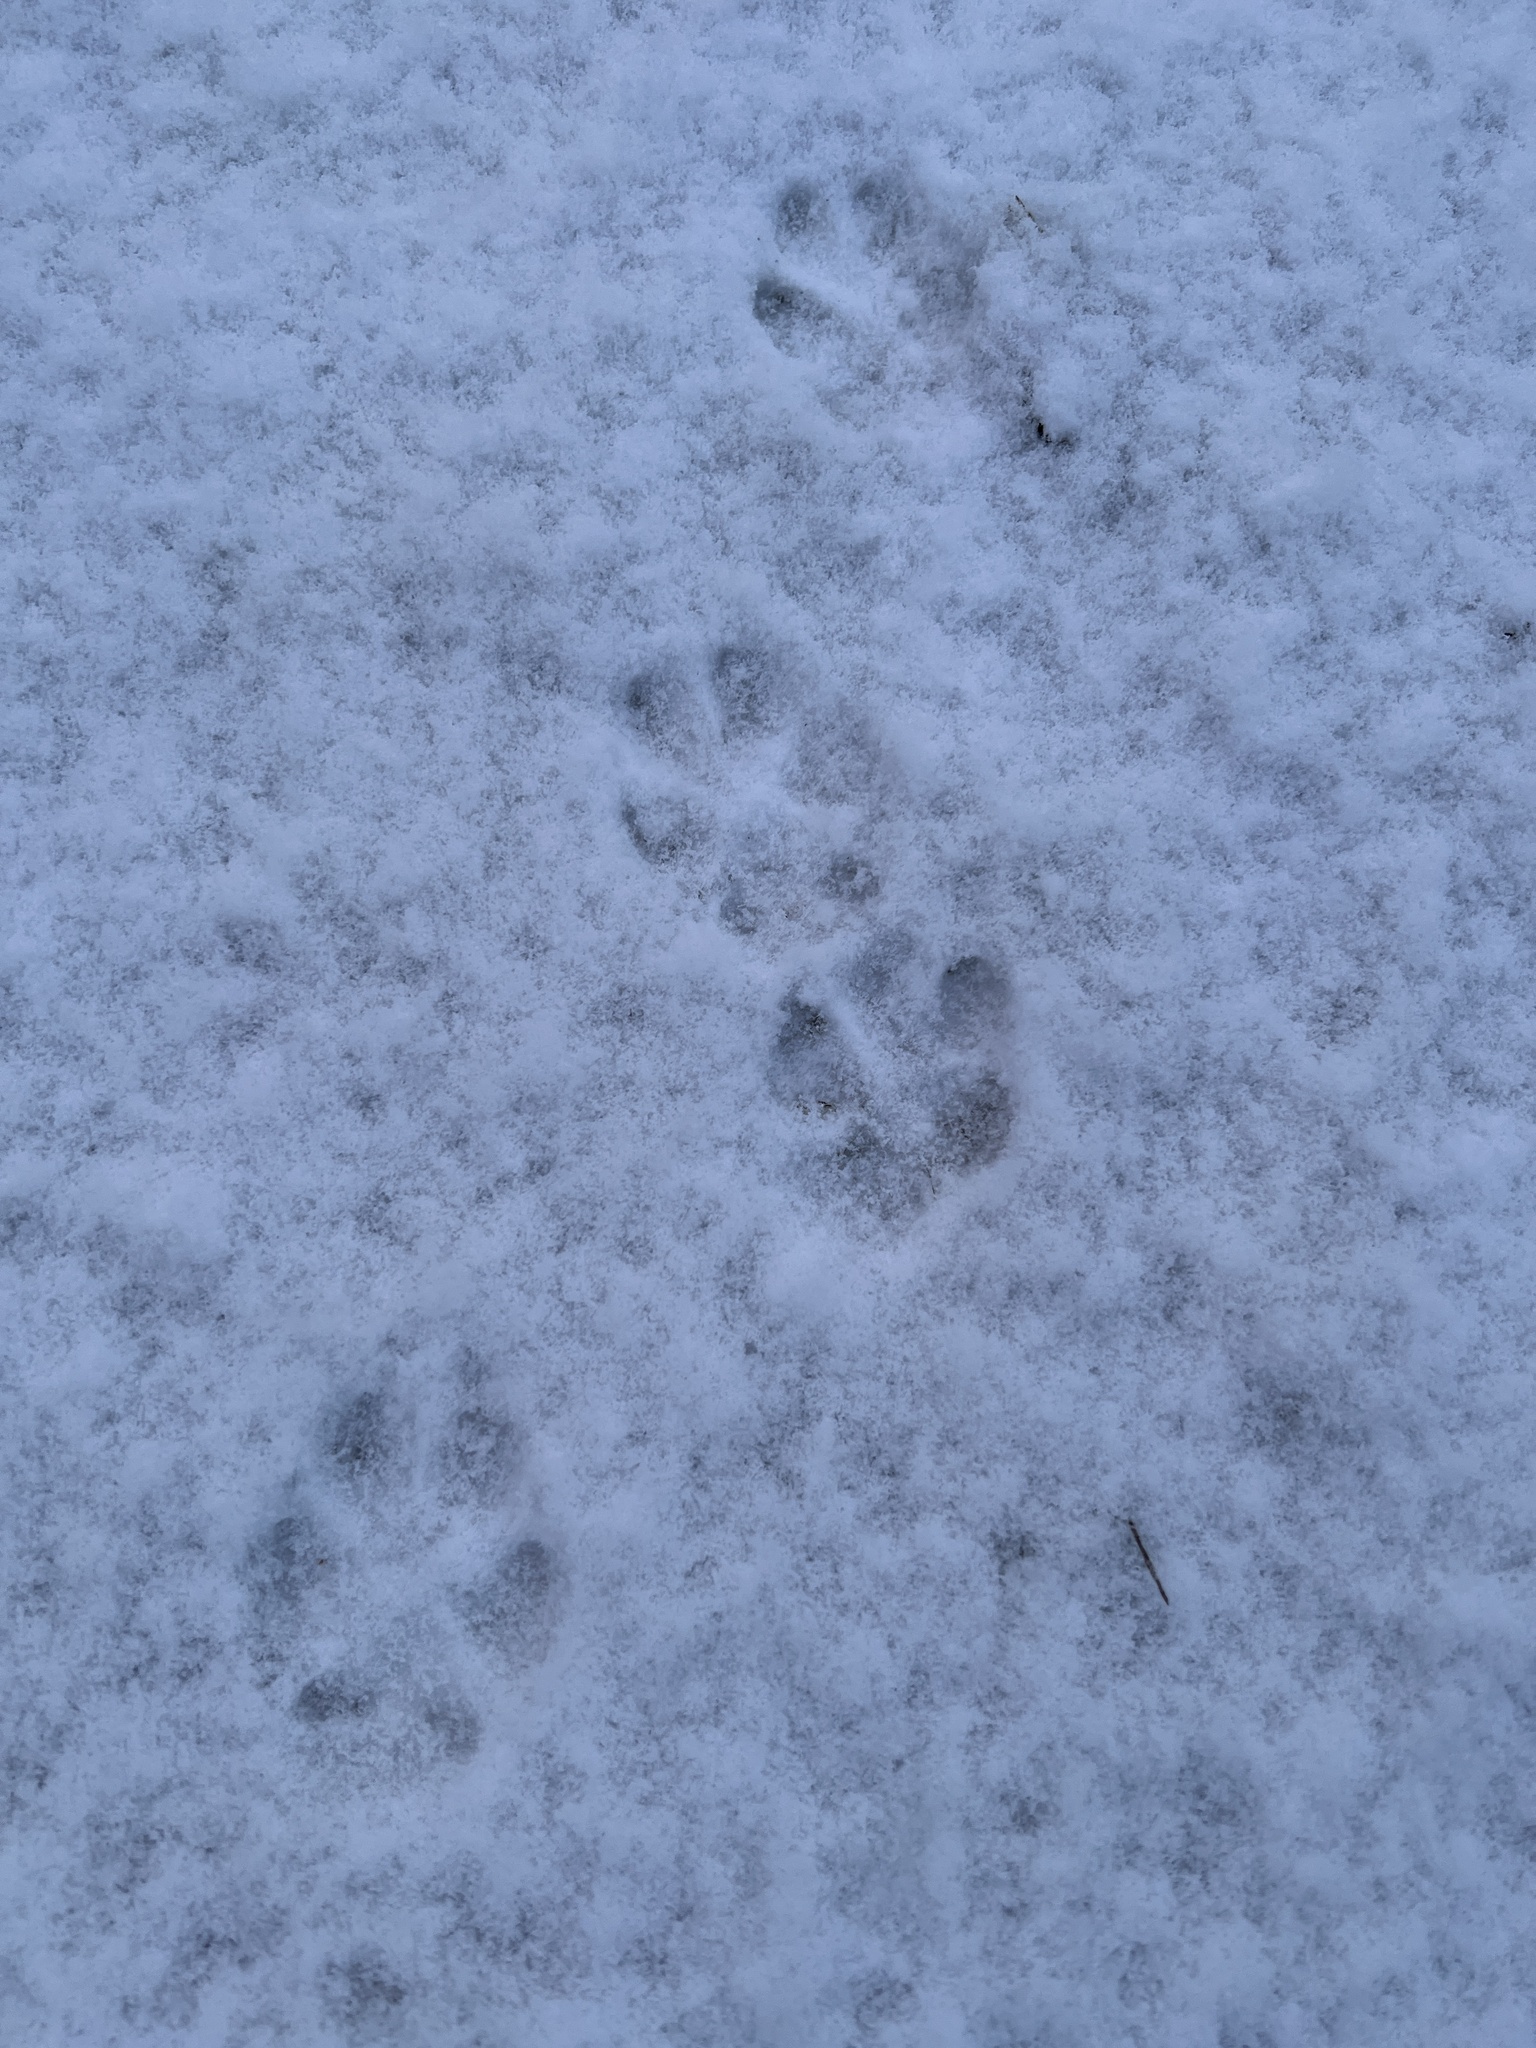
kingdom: Animalia
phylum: Chordata
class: Mammalia
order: Carnivora
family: Canidae
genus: Vulpes
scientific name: Vulpes vulpes
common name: Red fox
